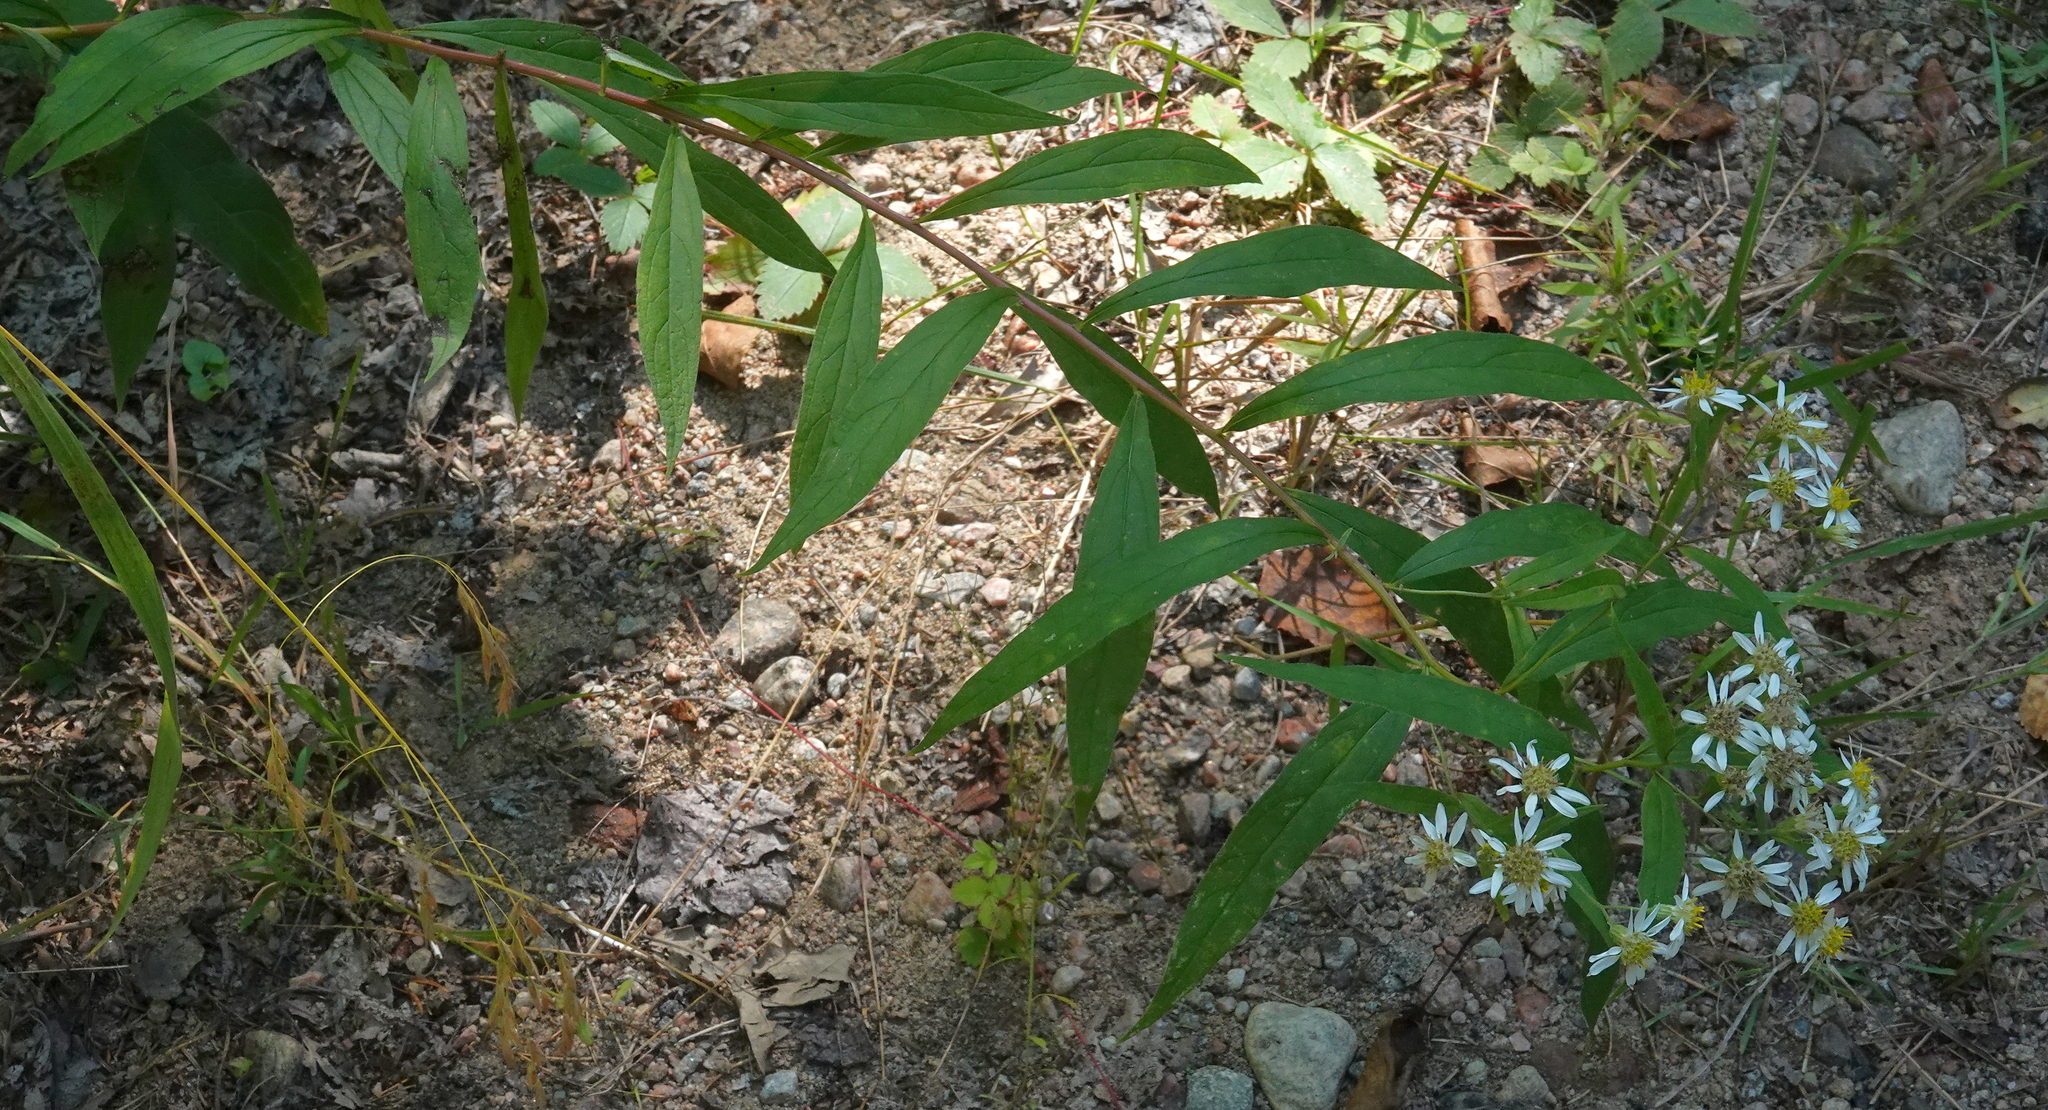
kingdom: Plantae
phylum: Tracheophyta
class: Magnoliopsida
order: Asterales
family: Asteraceae
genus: Doellingeria
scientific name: Doellingeria umbellata
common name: Flat-top white aster
